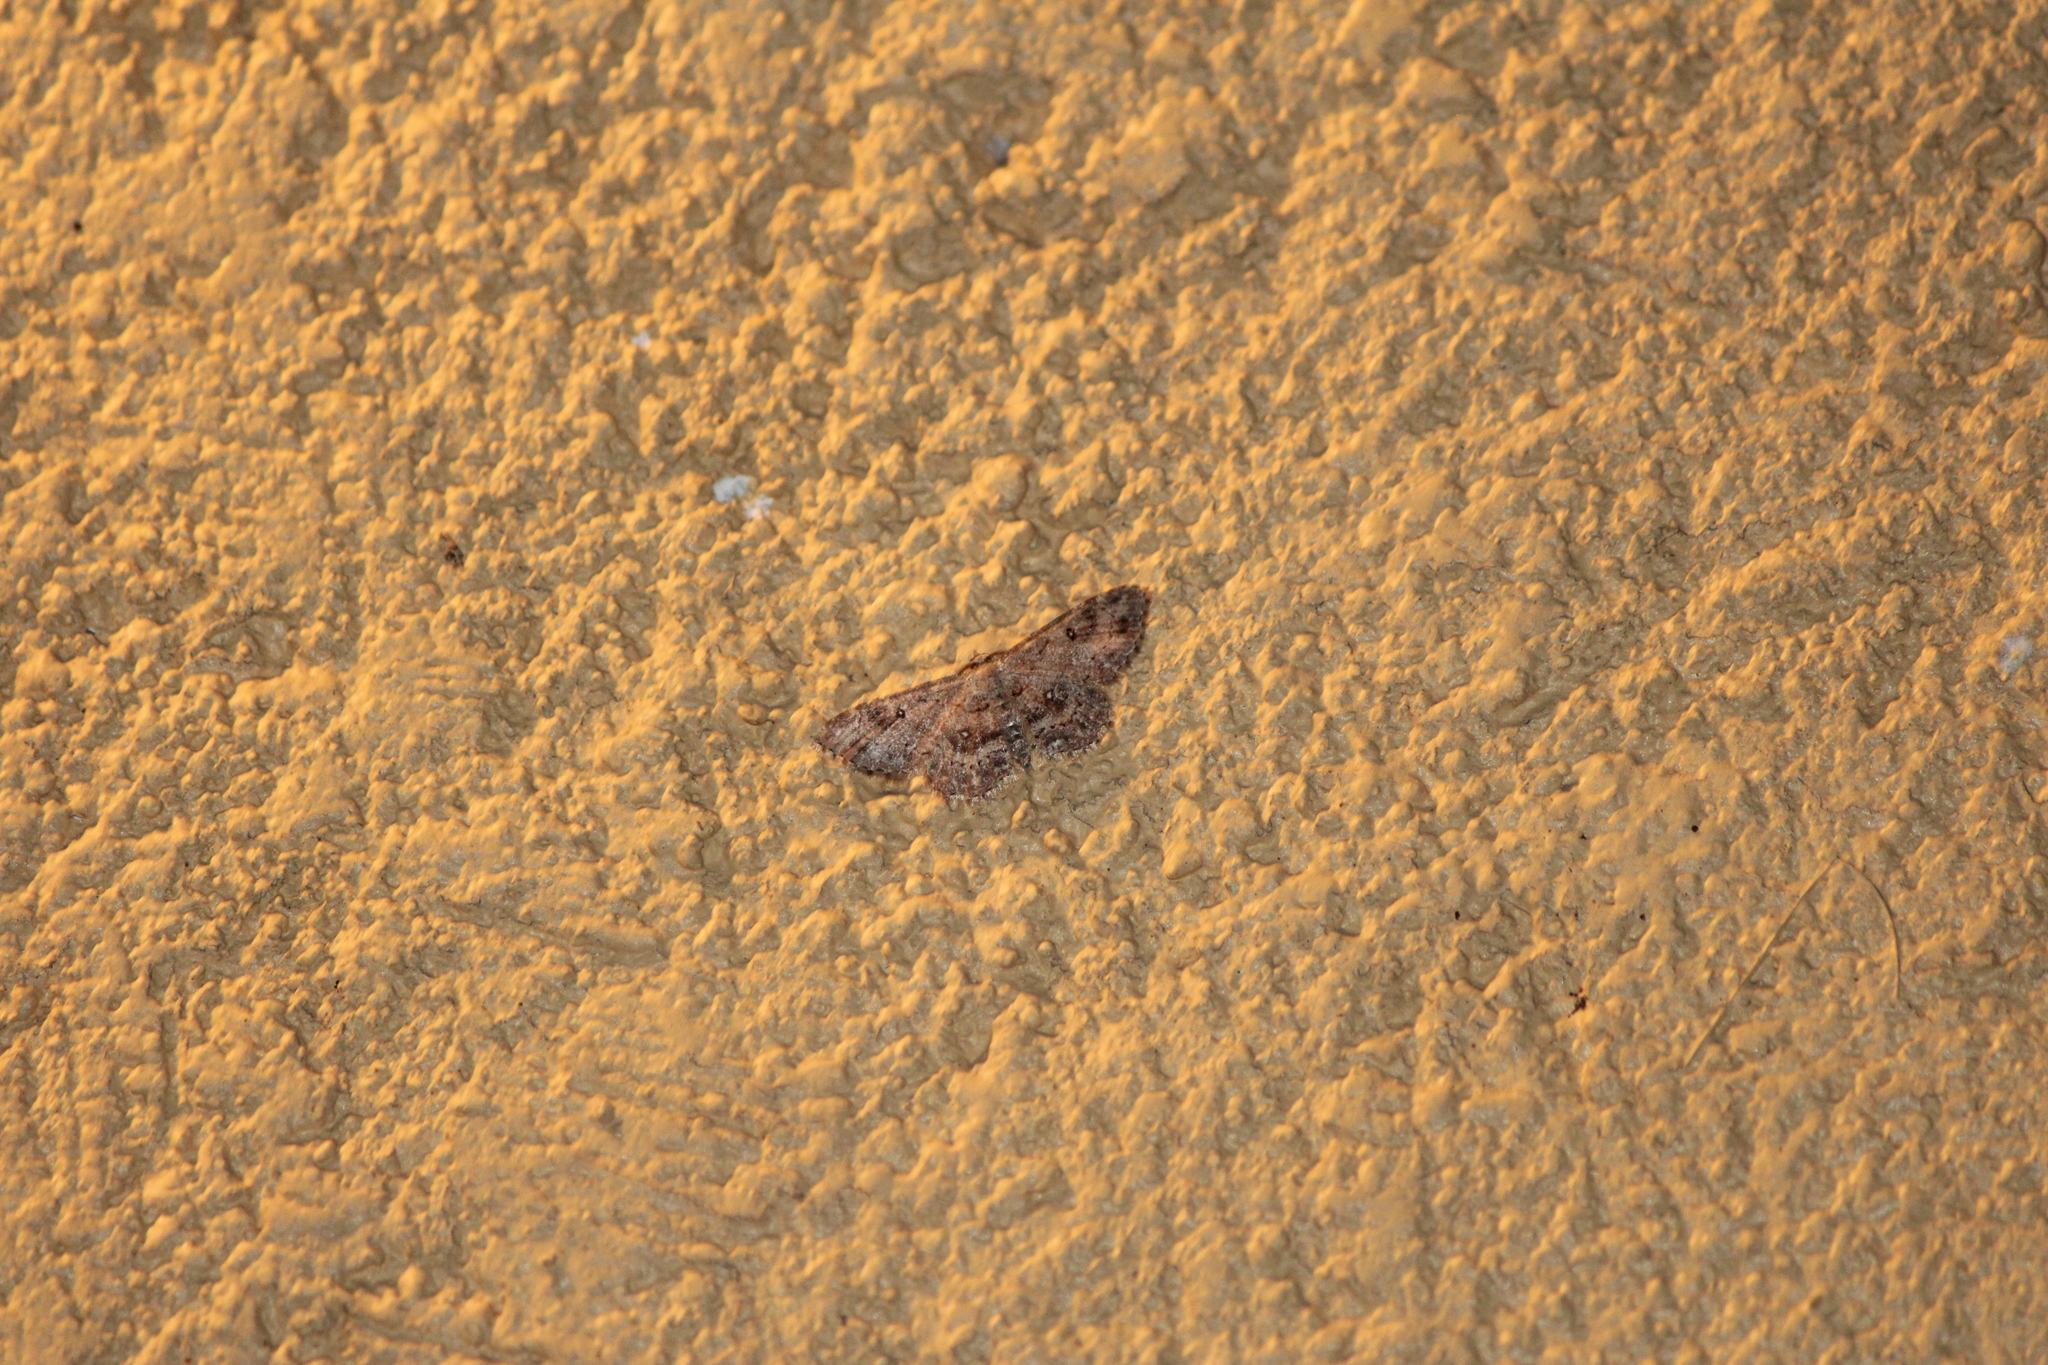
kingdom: Animalia
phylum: Arthropoda
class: Insecta
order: Lepidoptera
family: Geometridae
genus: Cyclophora
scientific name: Cyclophora nanaria
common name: Cankerworm
